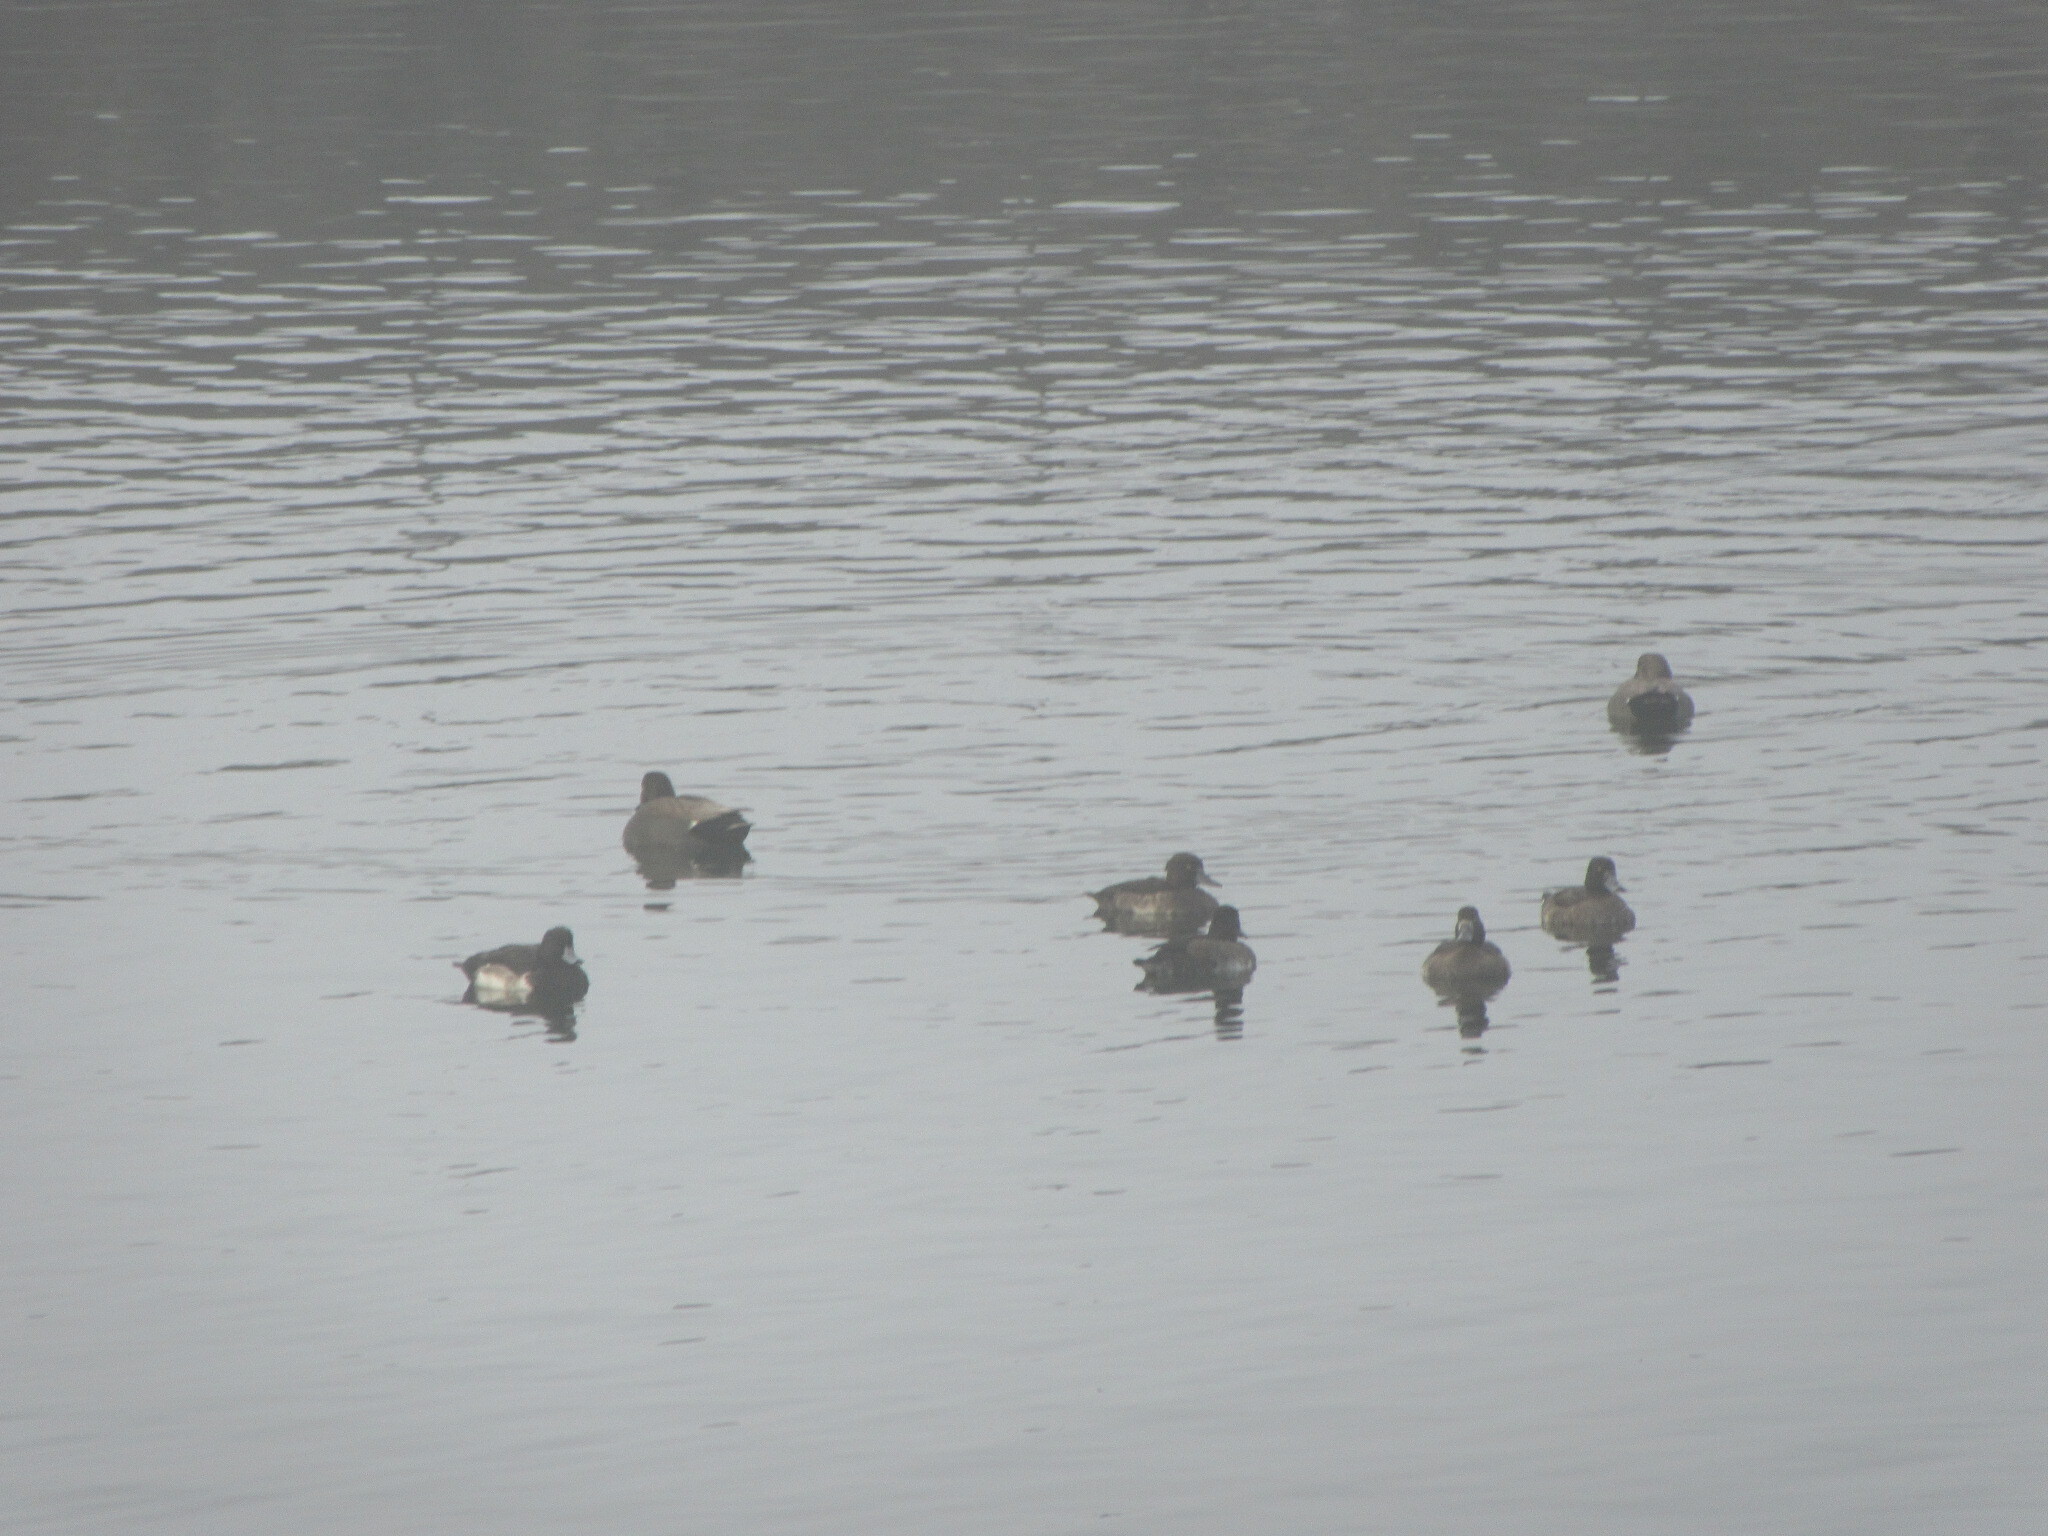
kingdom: Animalia
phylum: Chordata
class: Aves
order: Anseriformes
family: Anatidae
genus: Aythya
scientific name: Aythya fuligula
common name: Tufted duck
